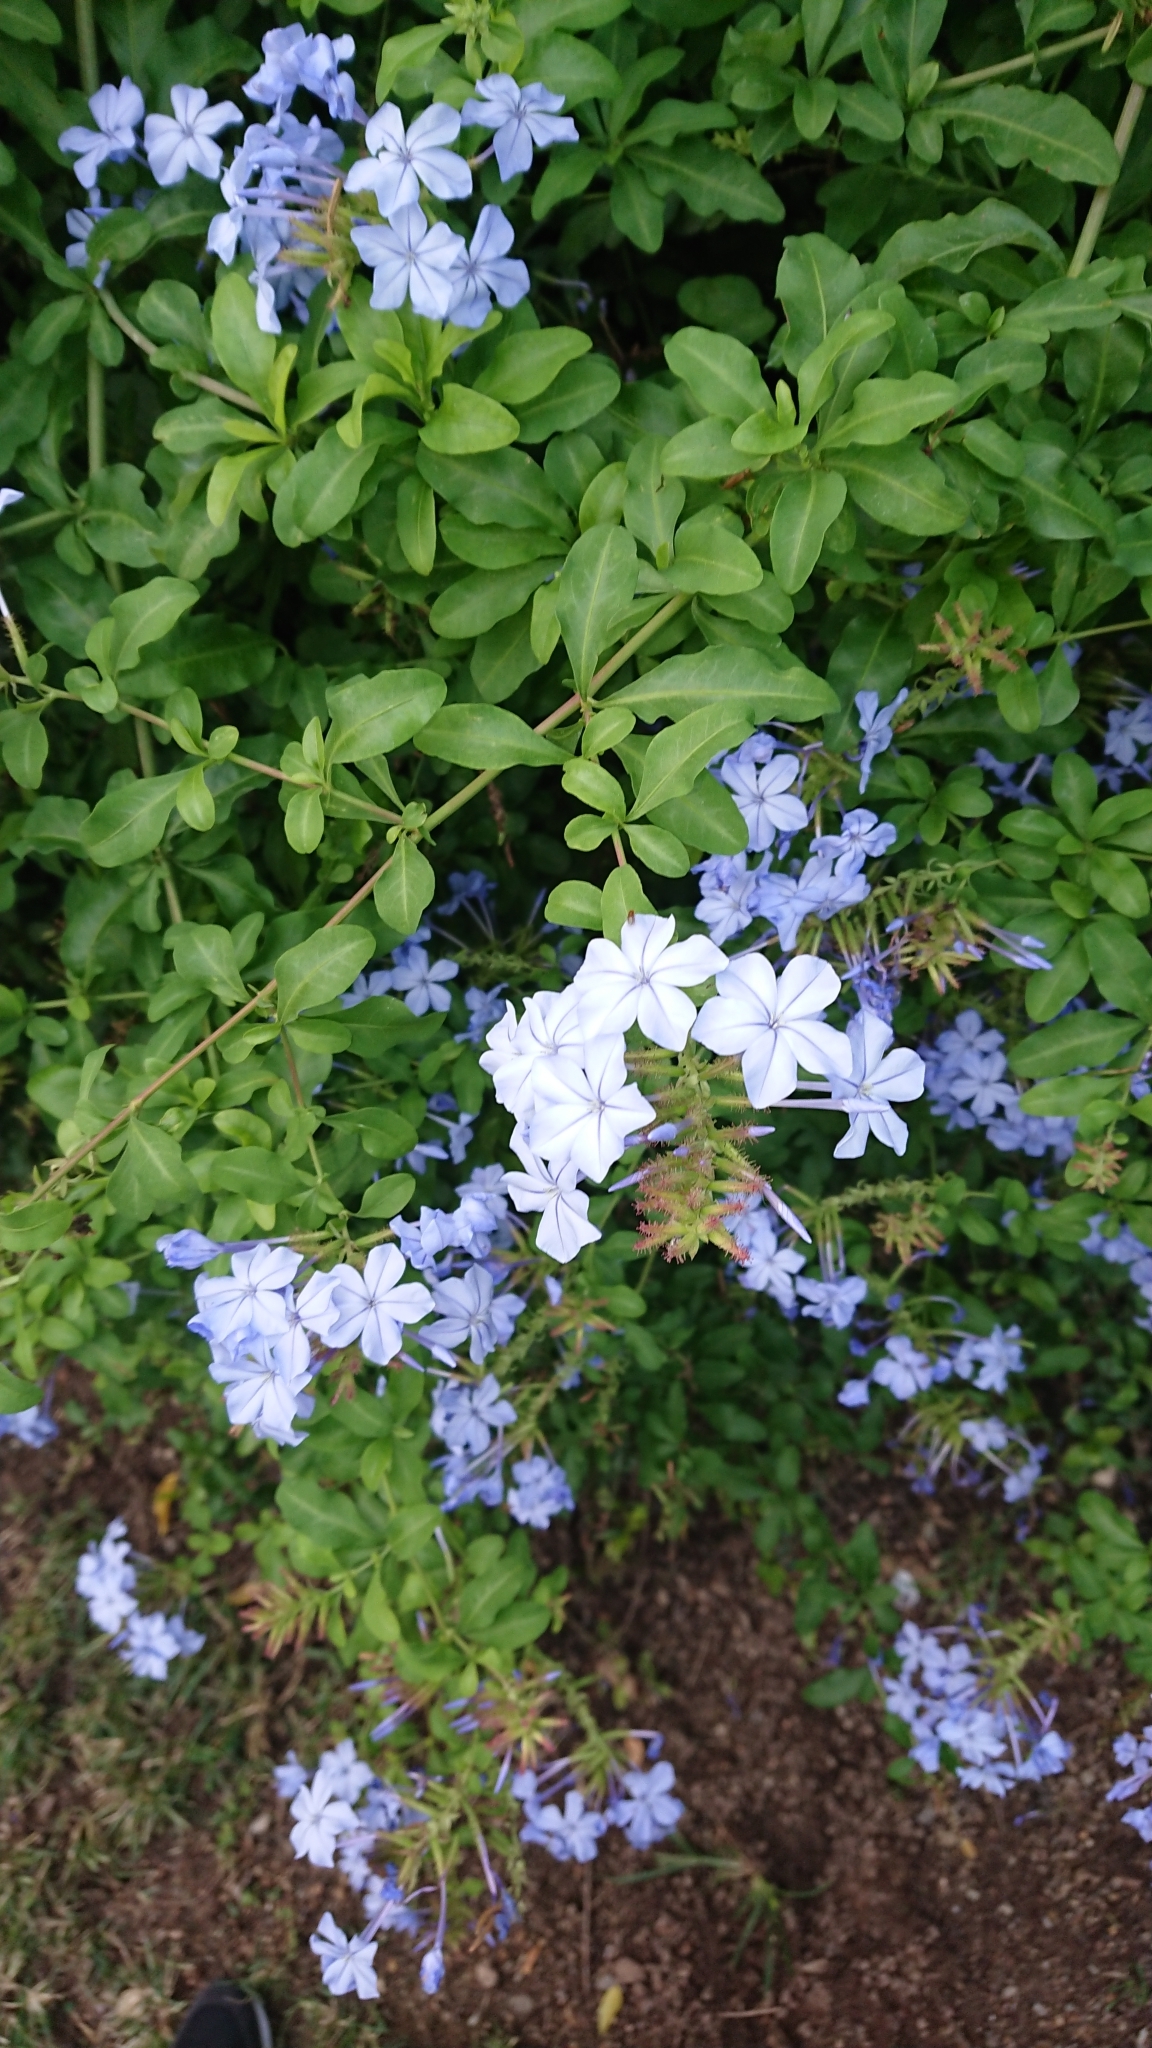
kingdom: Plantae
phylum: Tracheophyta
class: Magnoliopsida
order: Caryophyllales
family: Plumbaginaceae
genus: Plumbago
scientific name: Plumbago auriculata
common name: Cape leadwort
